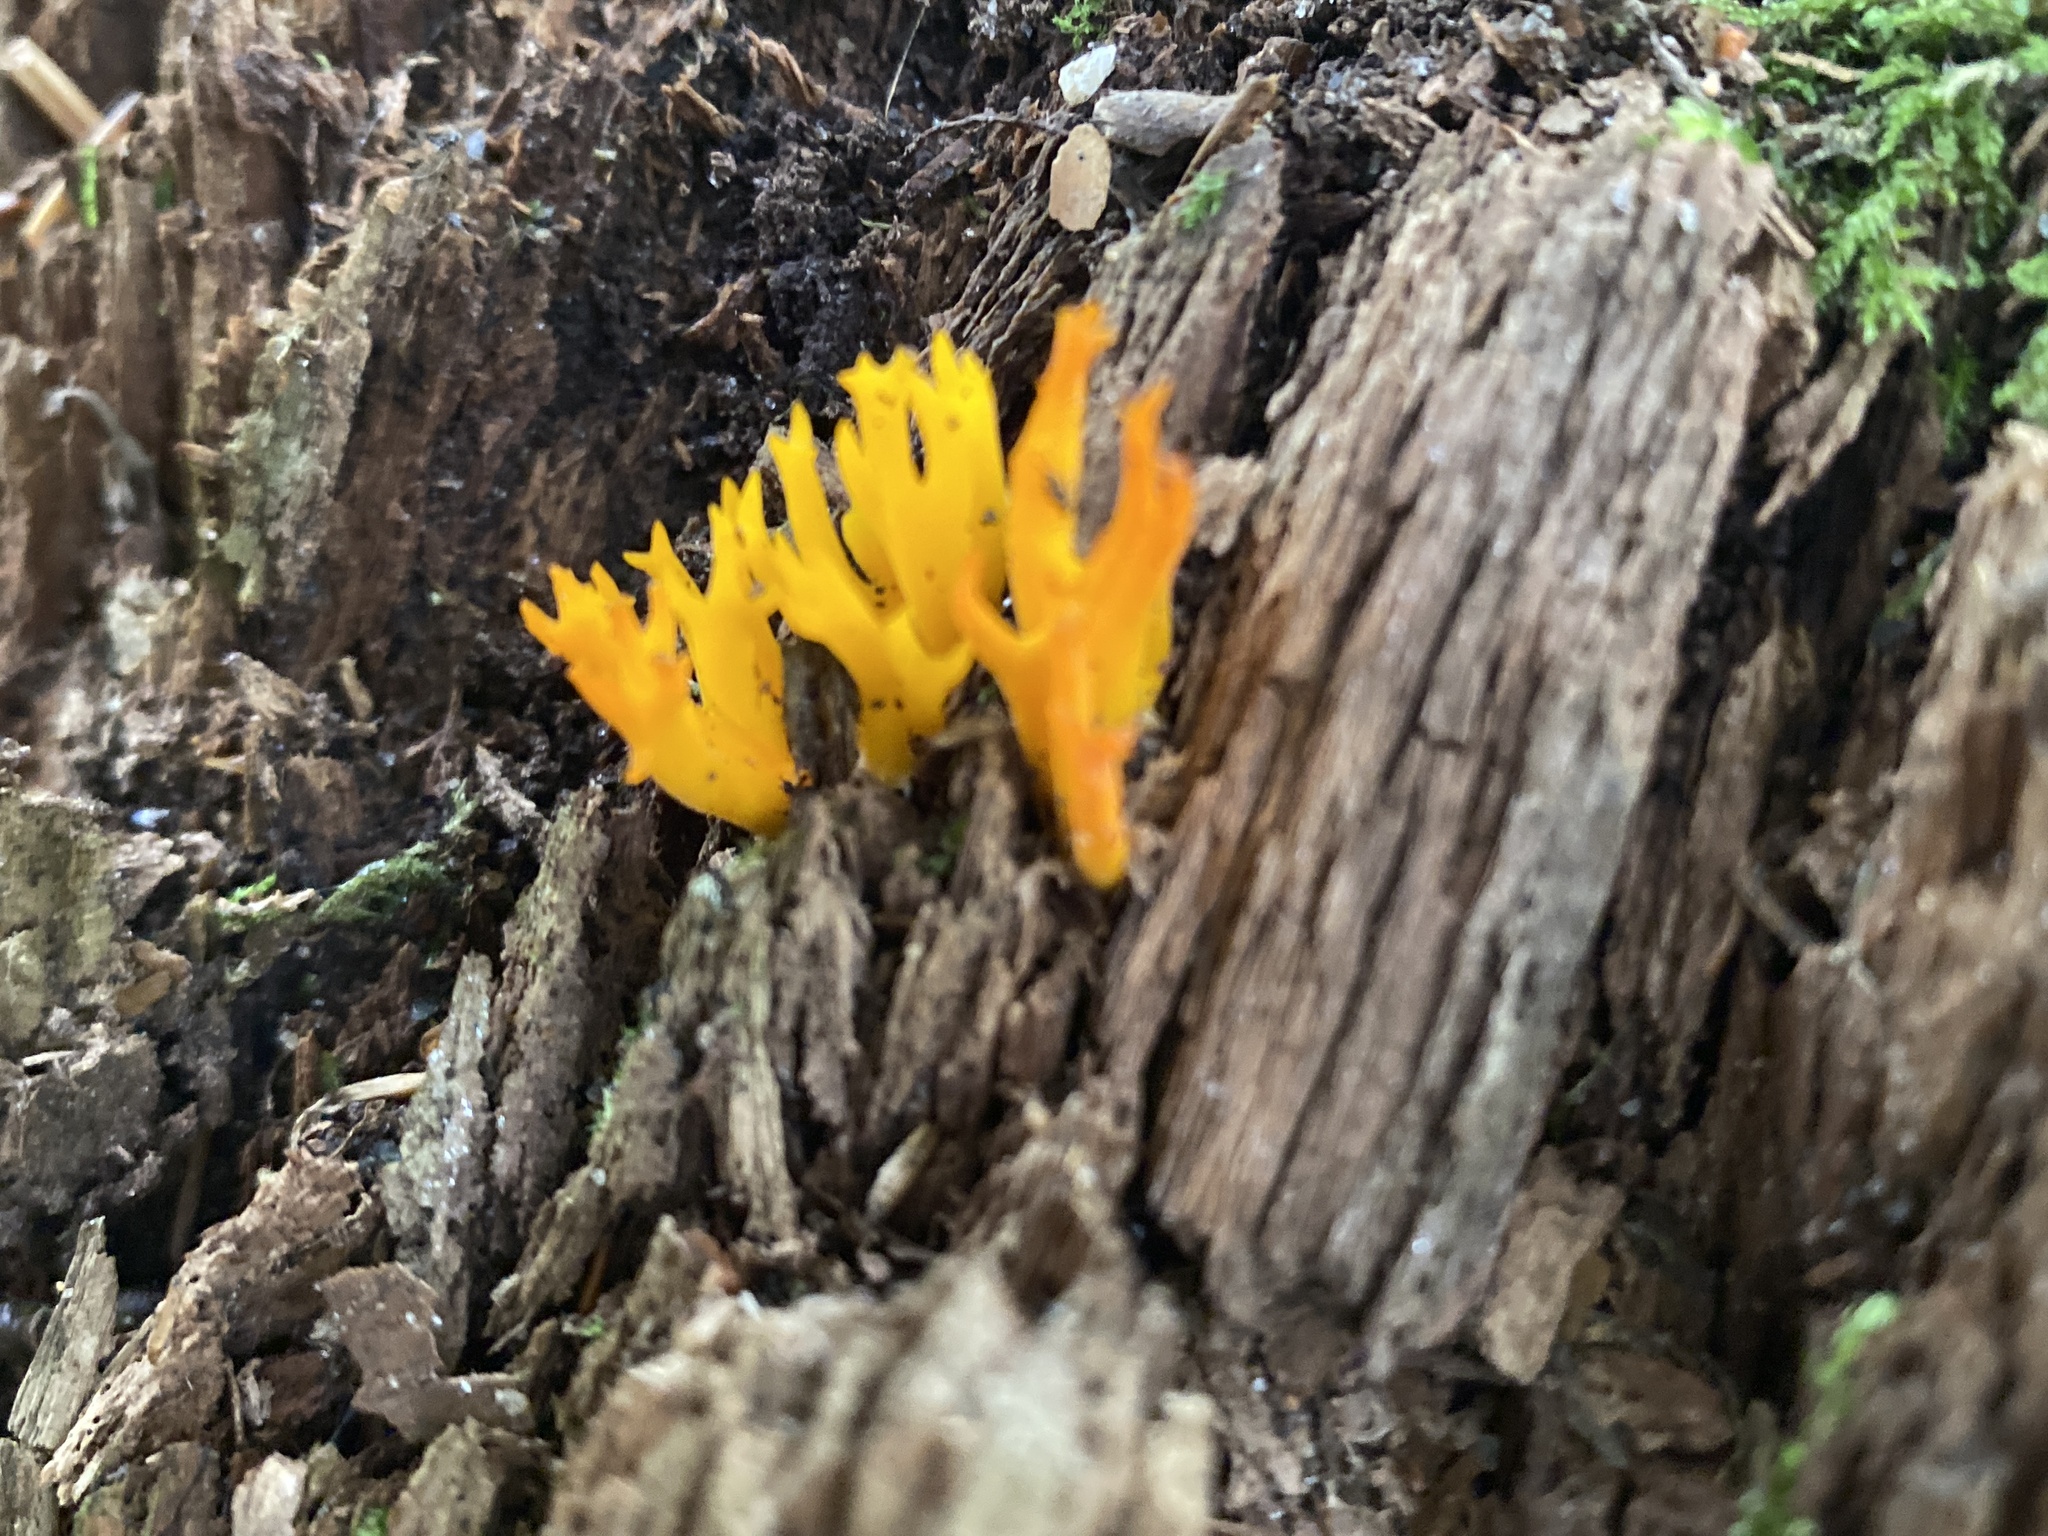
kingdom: Fungi
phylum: Basidiomycota
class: Dacrymycetes
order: Dacrymycetales
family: Dacrymycetaceae
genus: Calocera
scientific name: Calocera viscosa
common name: Yellow stagshorn
